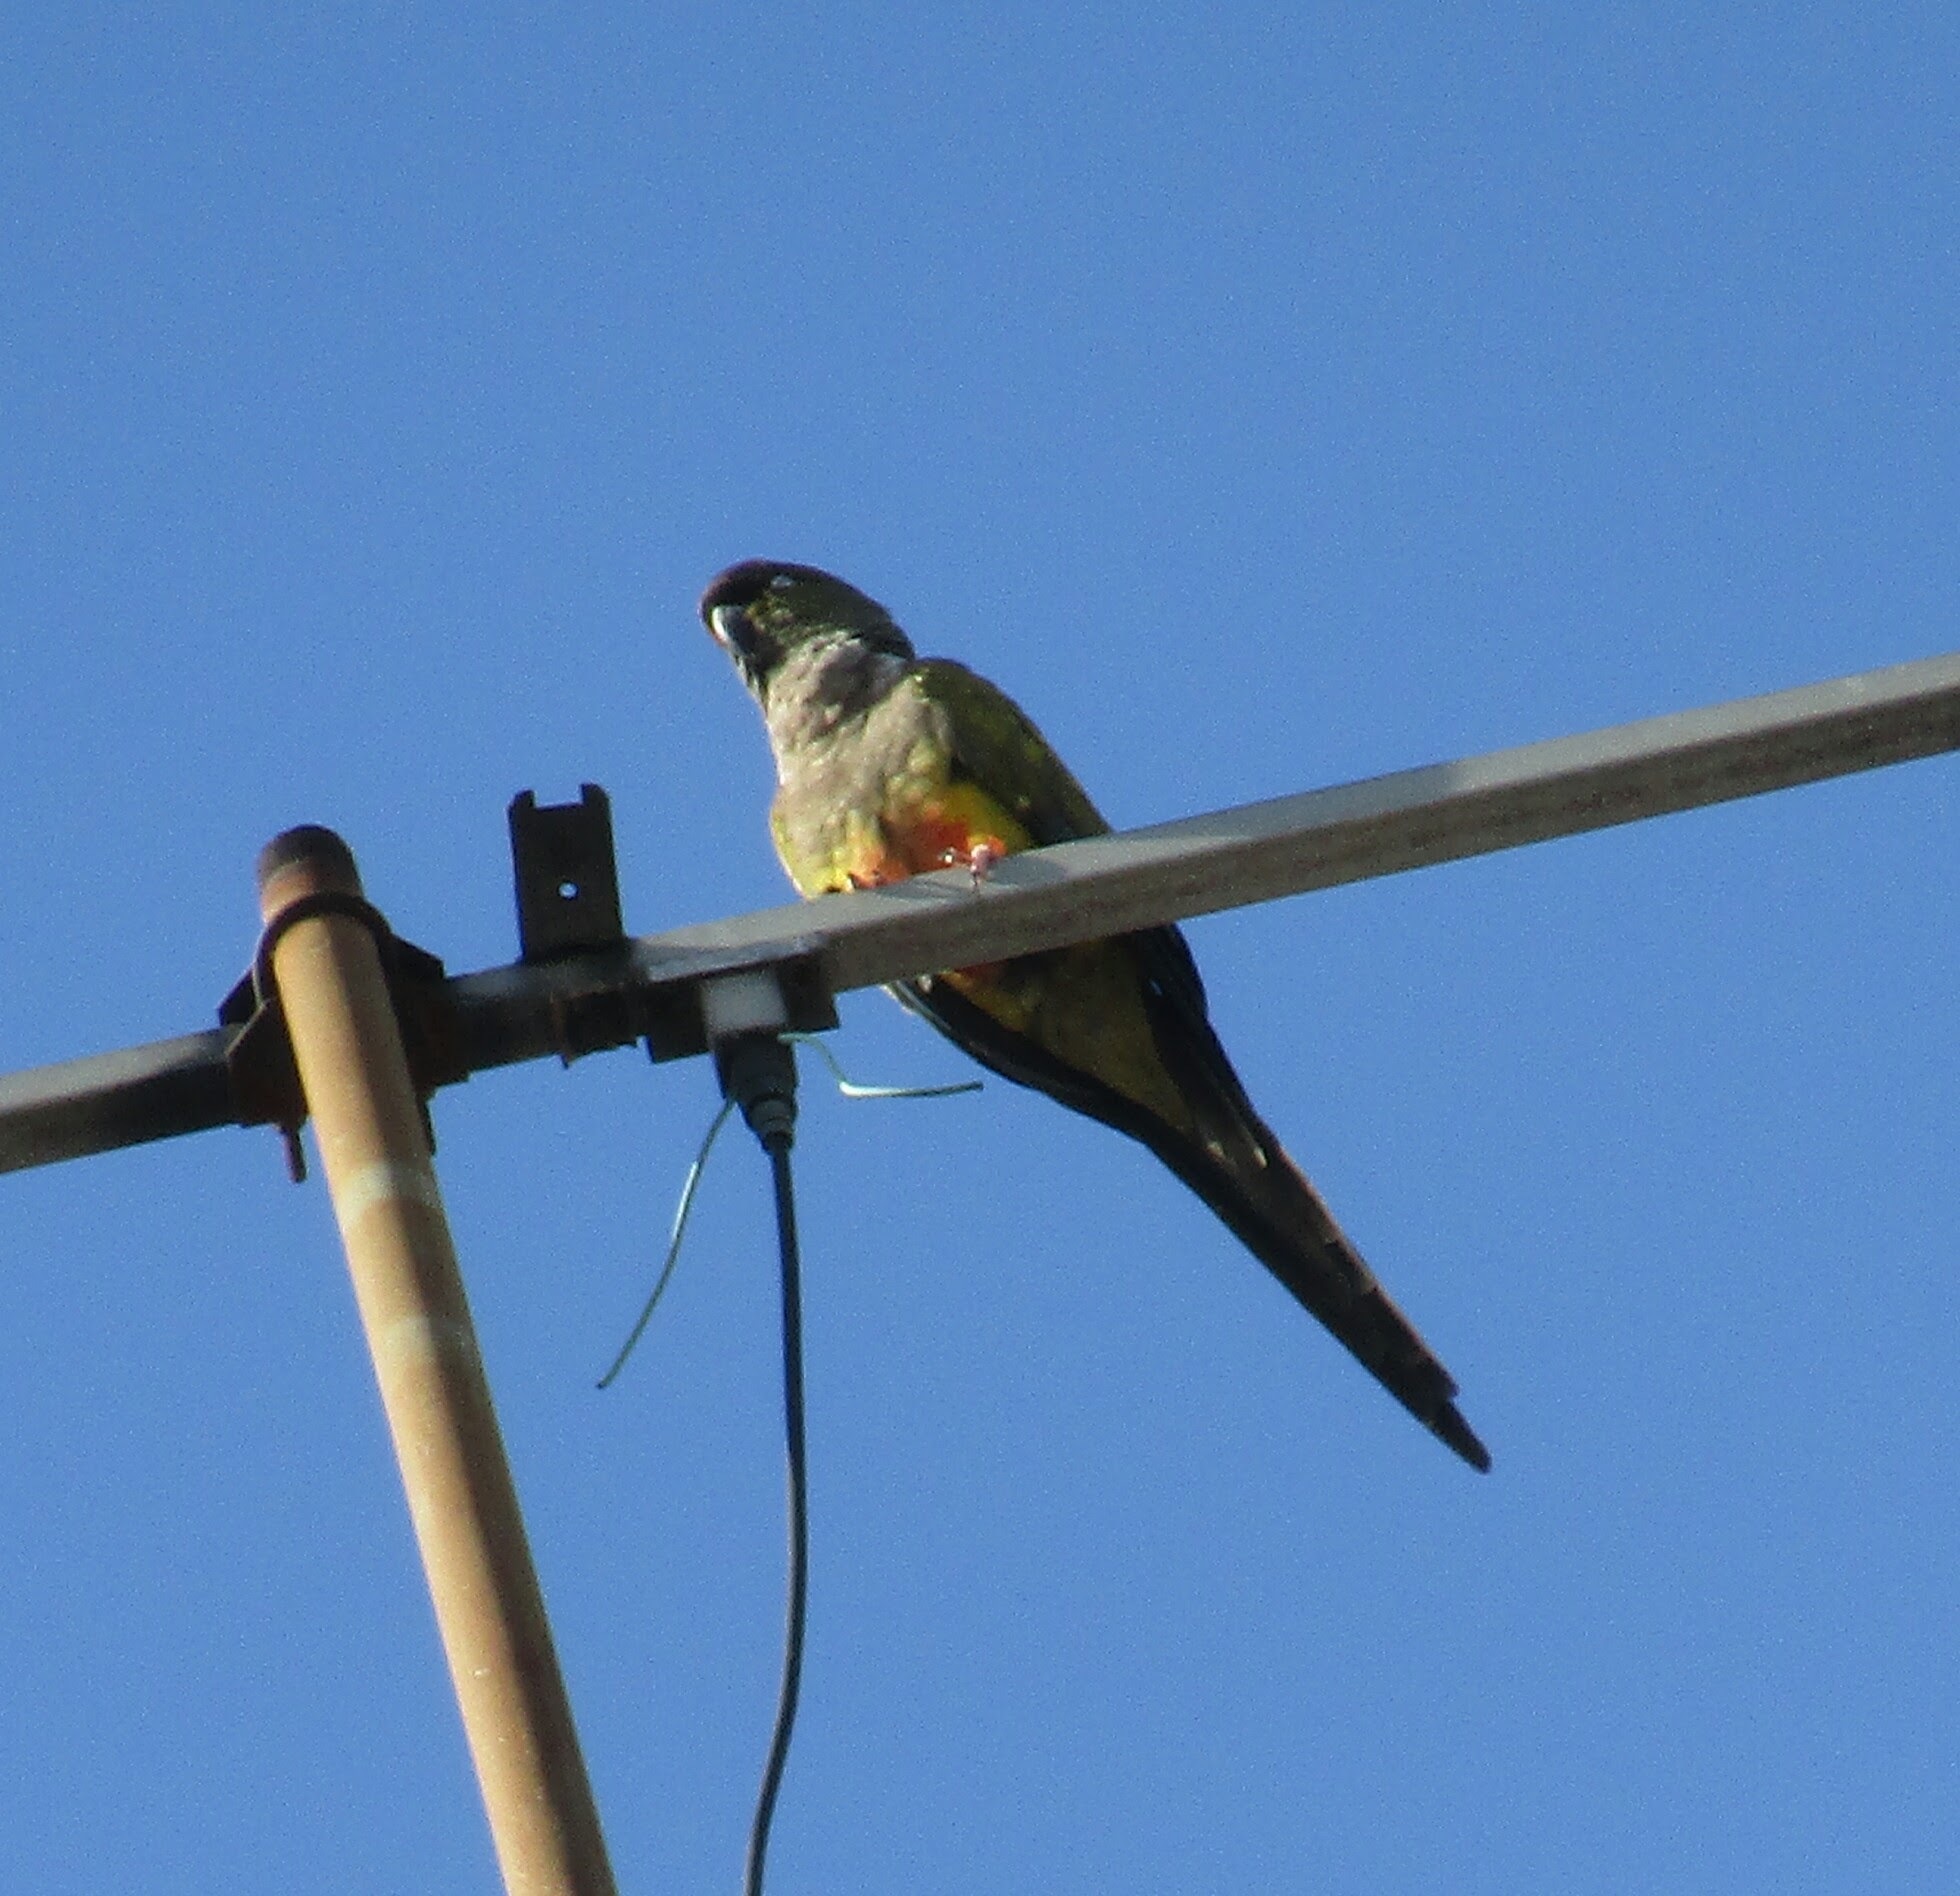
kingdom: Animalia
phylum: Chordata
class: Aves
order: Psittaciformes
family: Psittacidae
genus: Cyanoliseus
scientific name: Cyanoliseus patagonus
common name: Burrowing parrot
